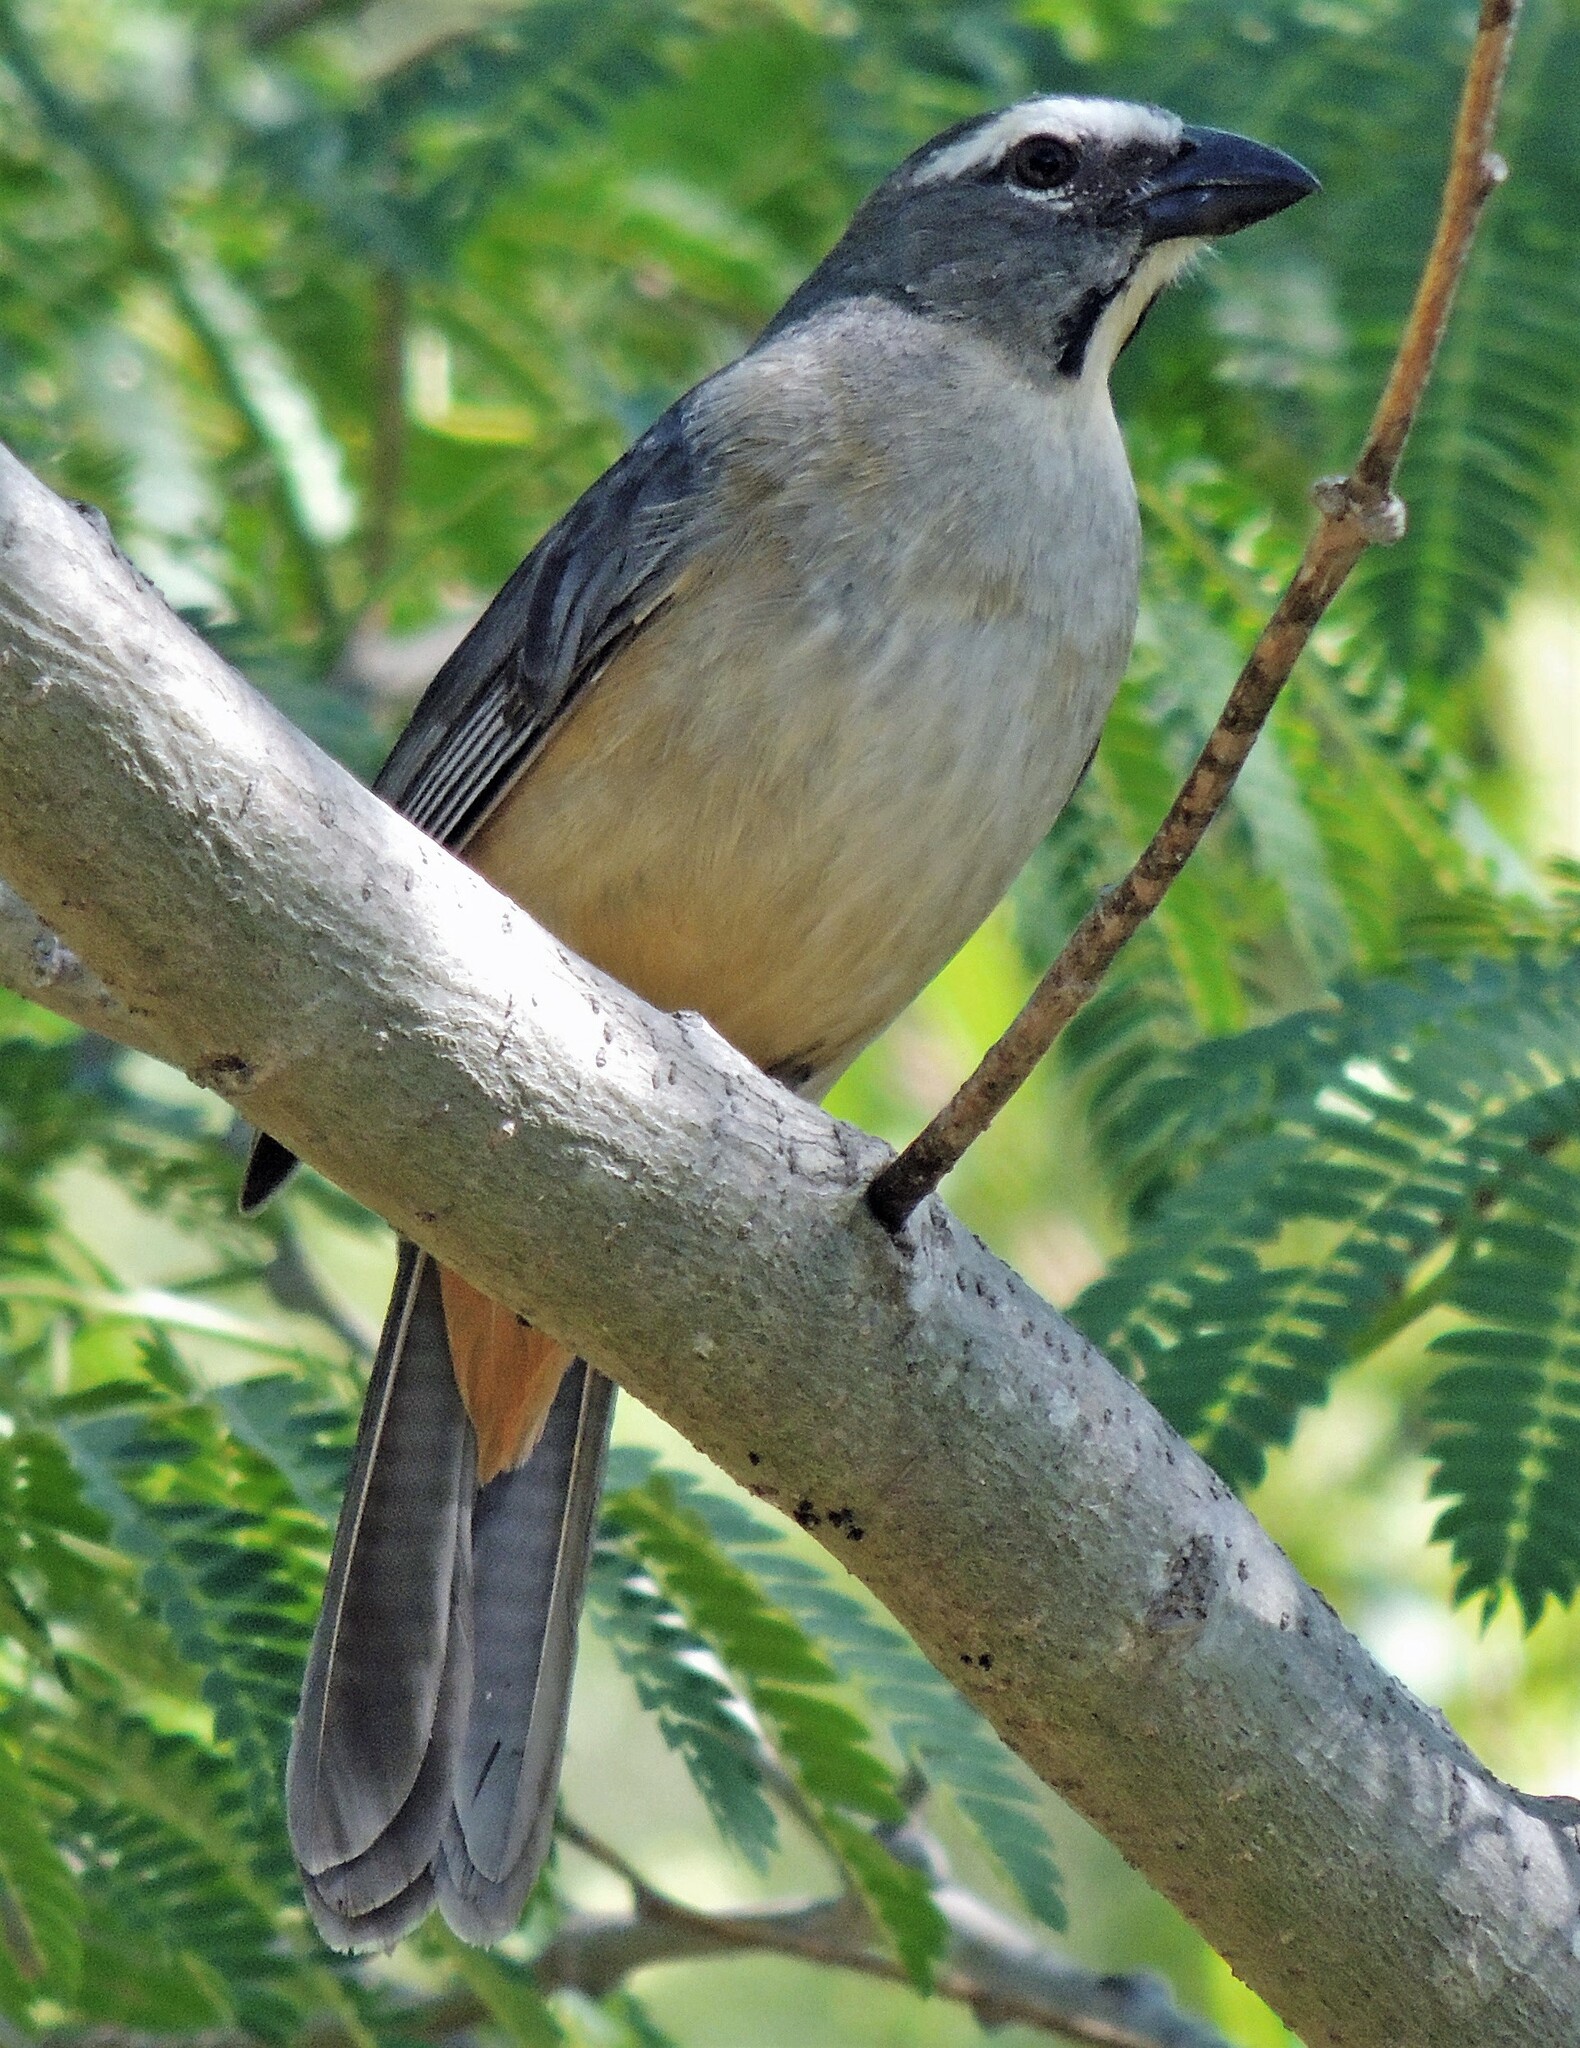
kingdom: Animalia
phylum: Chordata
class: Aves
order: Passeriformes
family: Thraupidae
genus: Saltator
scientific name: Saltator coerulescens
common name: Grayish saltator
